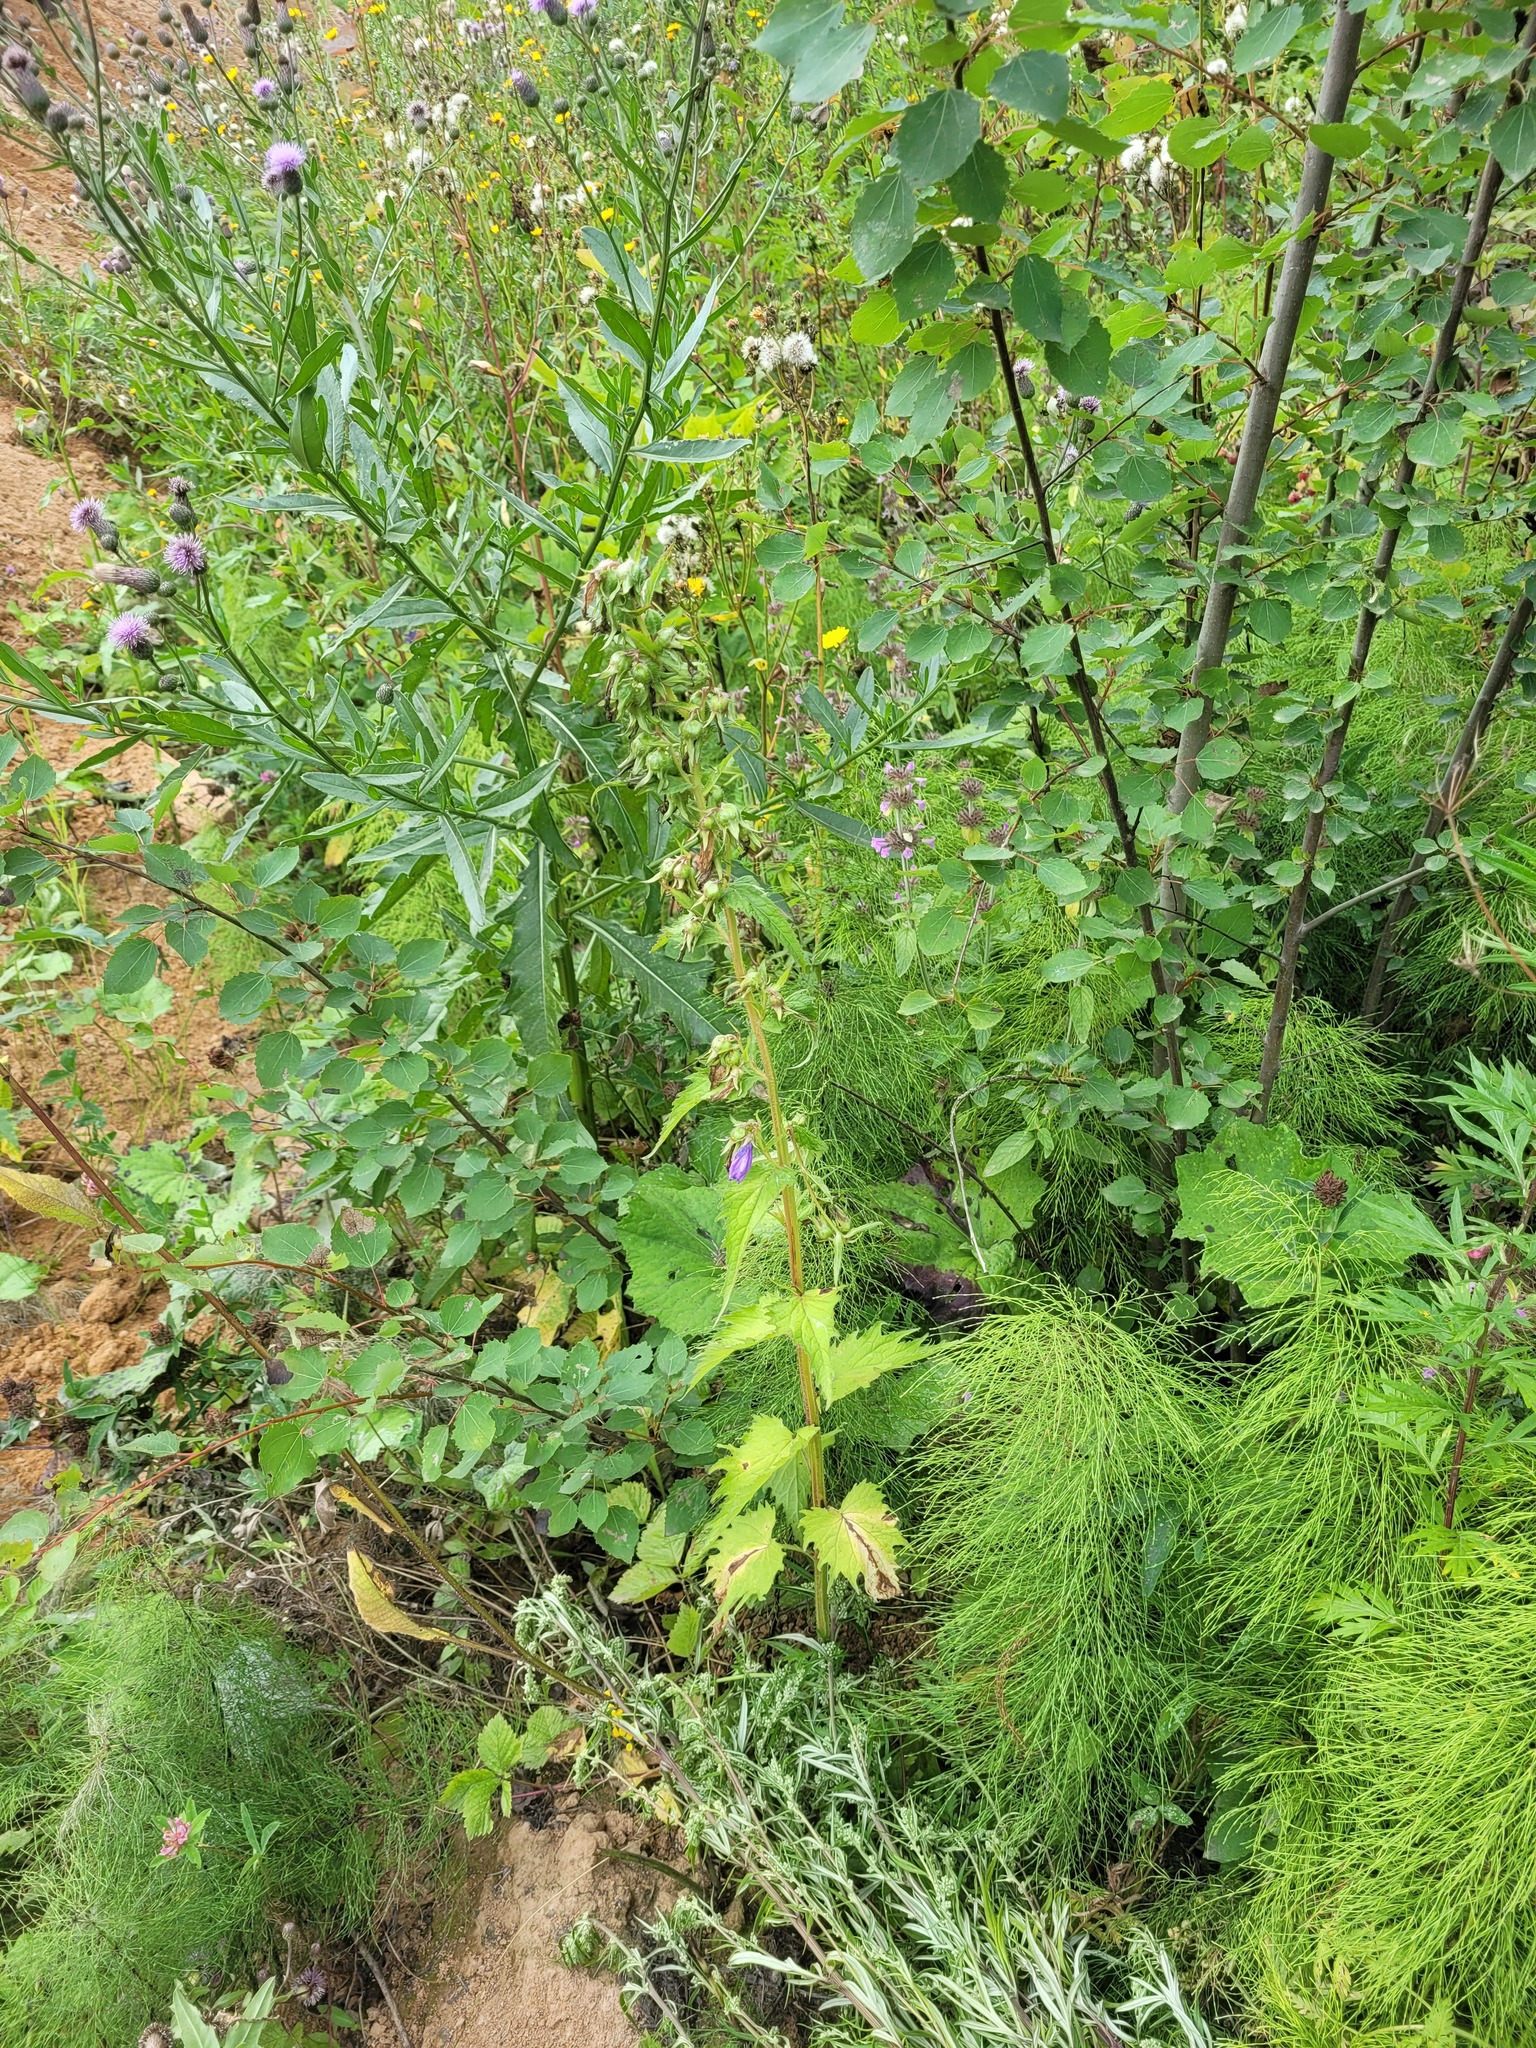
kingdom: Plantae
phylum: Tracheophyta
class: Magnoliopsida
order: Asterales
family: Campanulaceae
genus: Campanula
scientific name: Campanula trachelium
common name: Nettle-leaved bellflower
